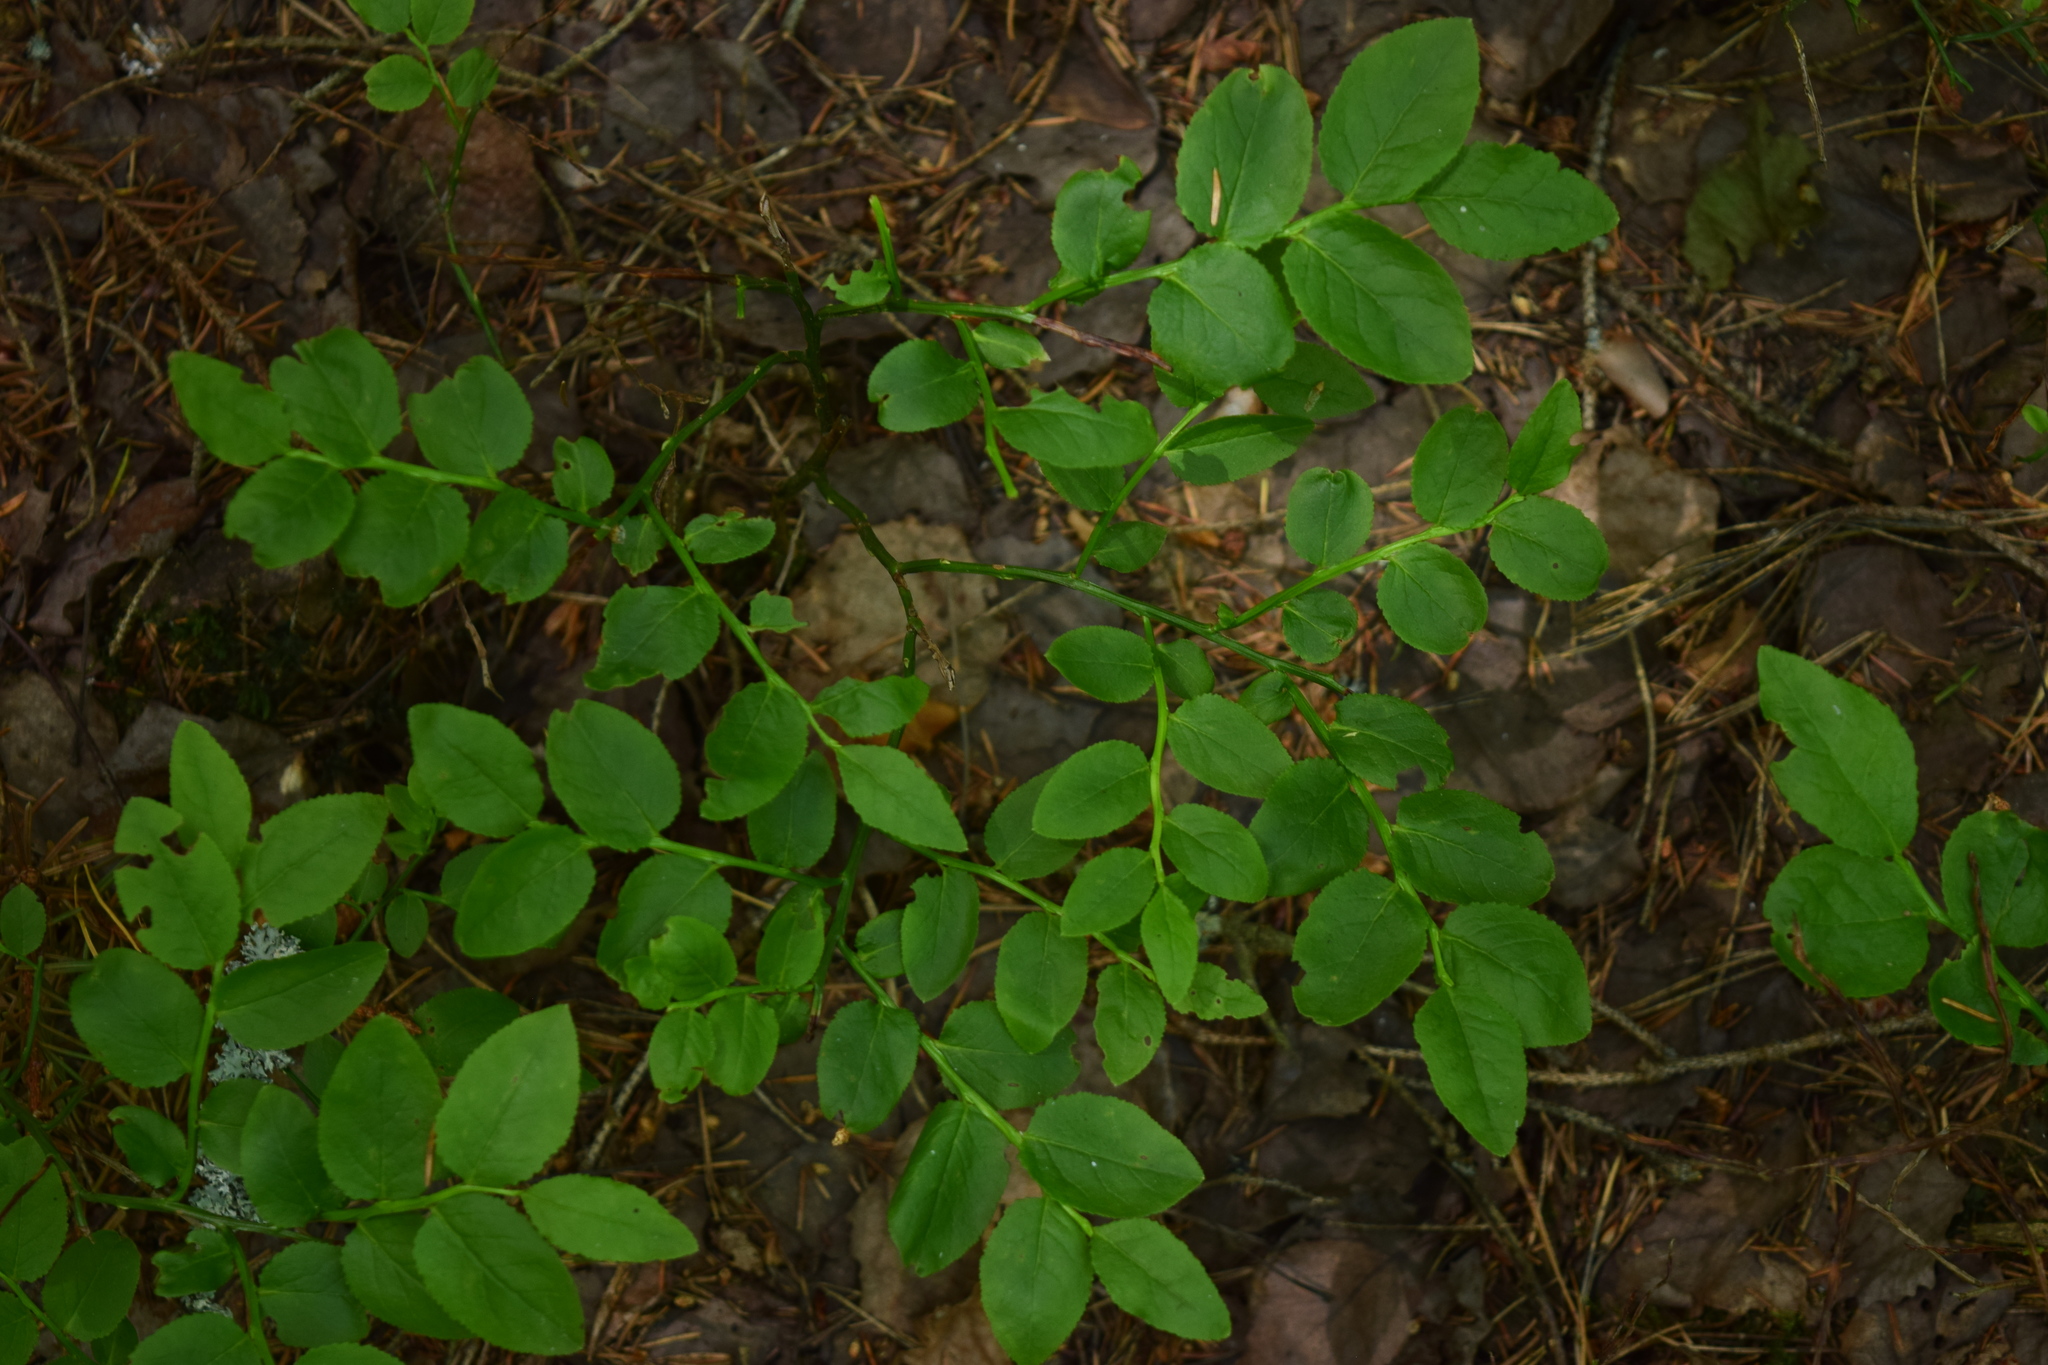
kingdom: Plantae
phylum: Tracheophyta
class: Magnoliopsida
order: Ericales
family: Ericaceae
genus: Vaccinium
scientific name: Vaccinium myrtillus
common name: Bilberry
